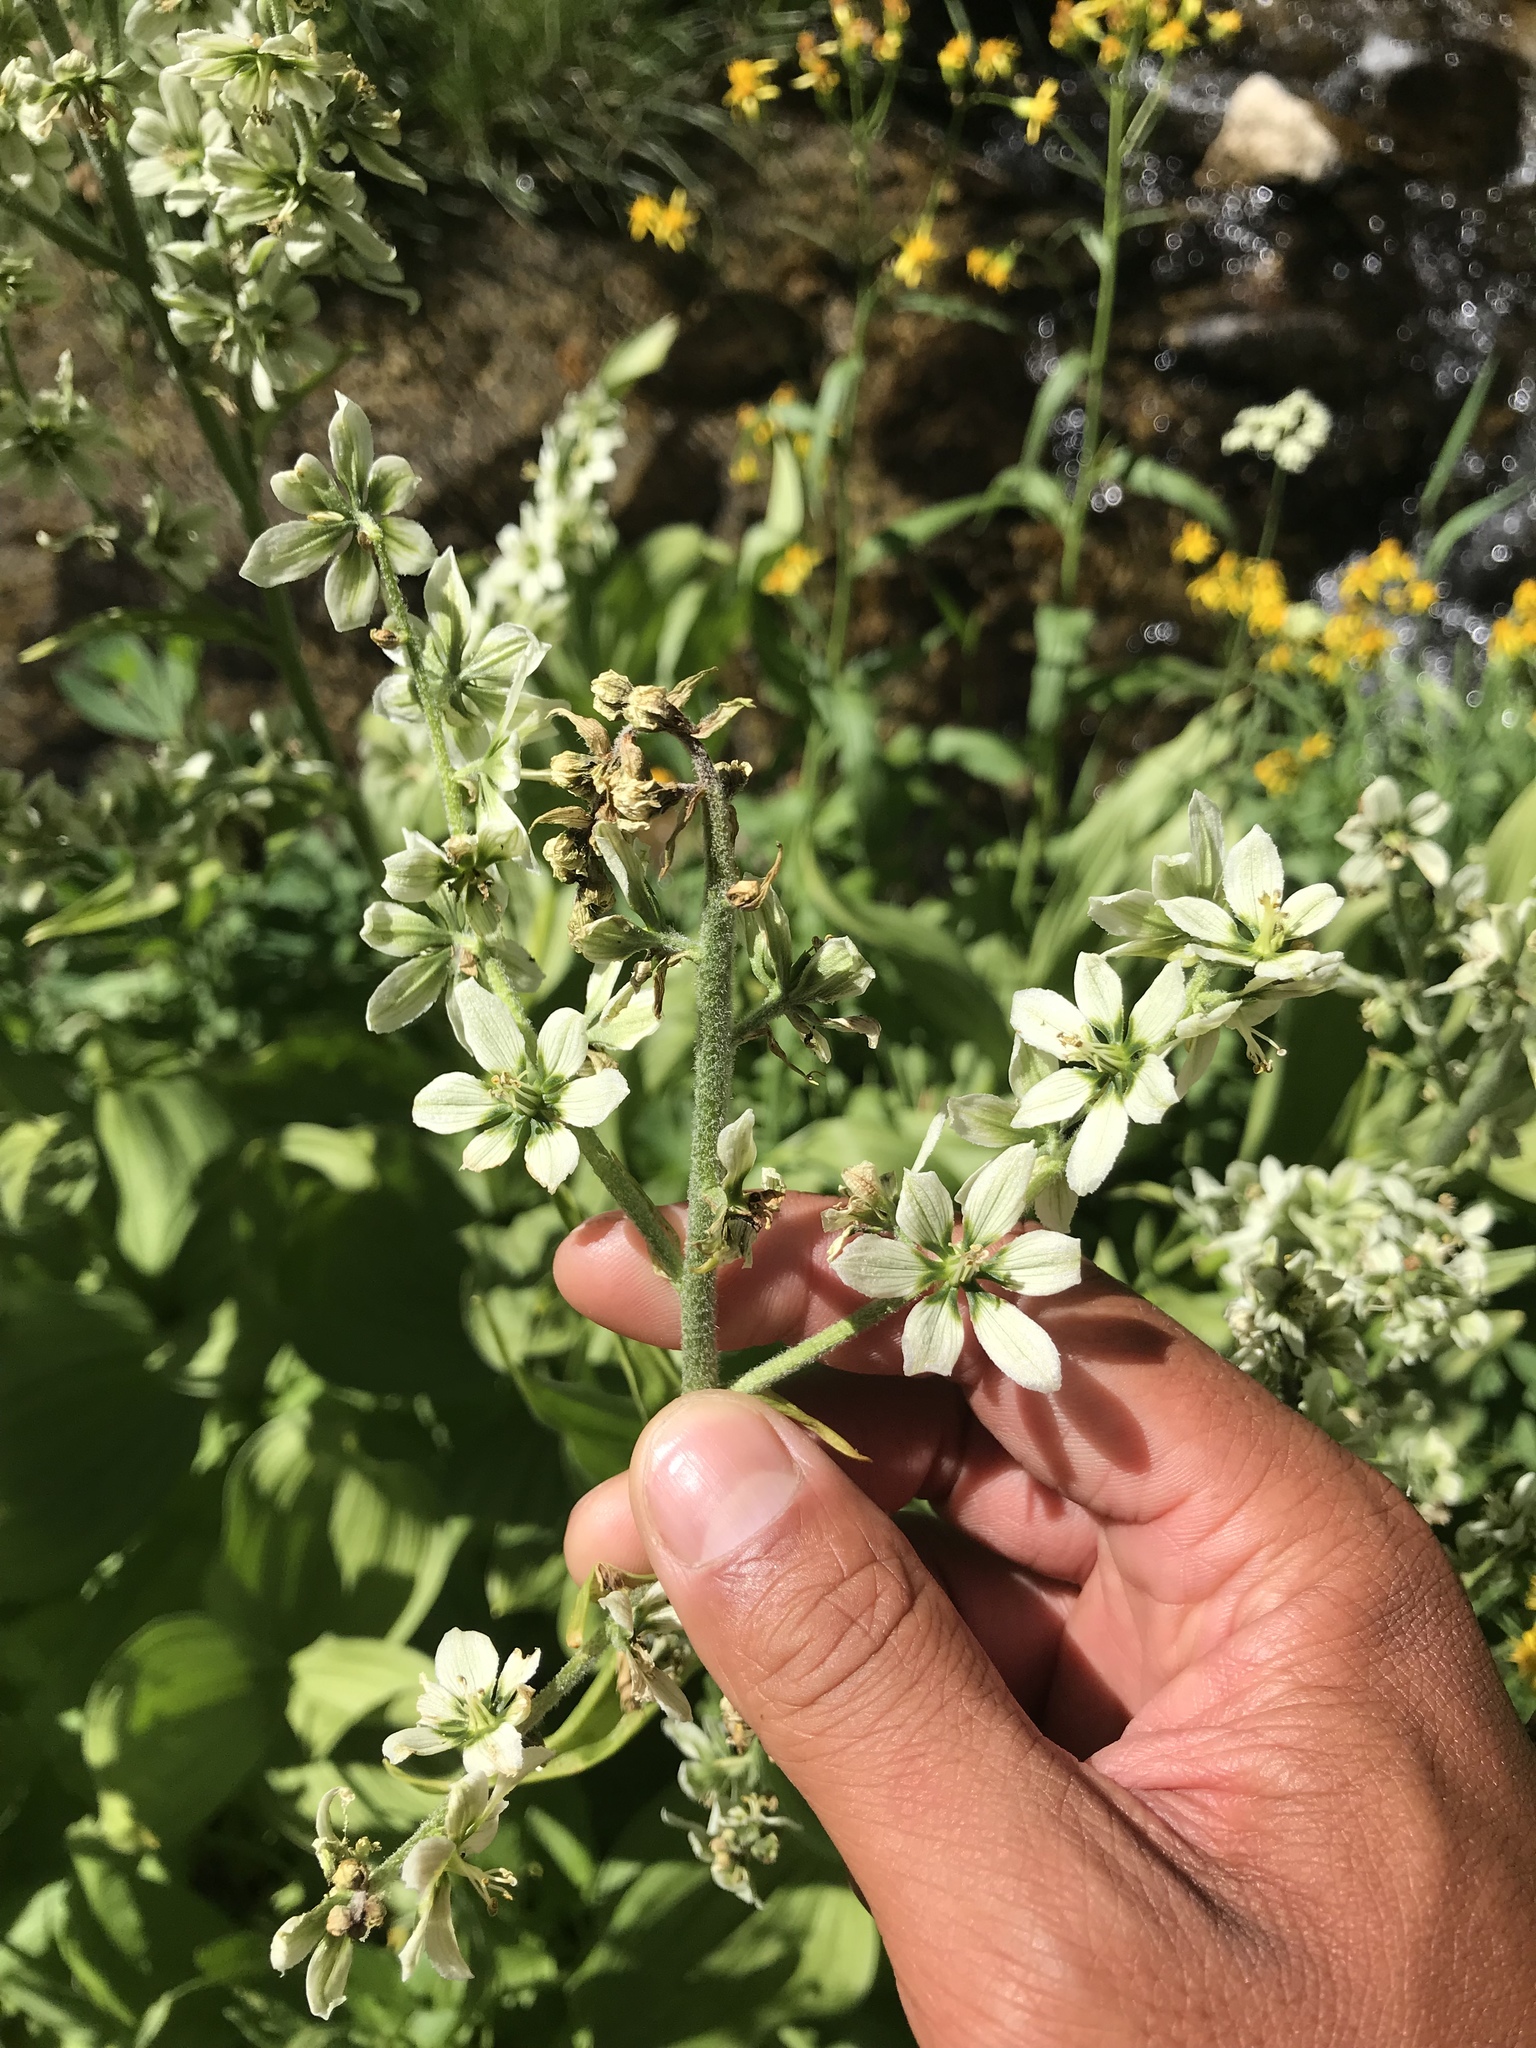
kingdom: Plantae
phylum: Tracheophyta
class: Liliopsida
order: Liliales
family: Melanthiaceae
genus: Veratrum
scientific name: Veratrum californicum
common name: California veratrum
